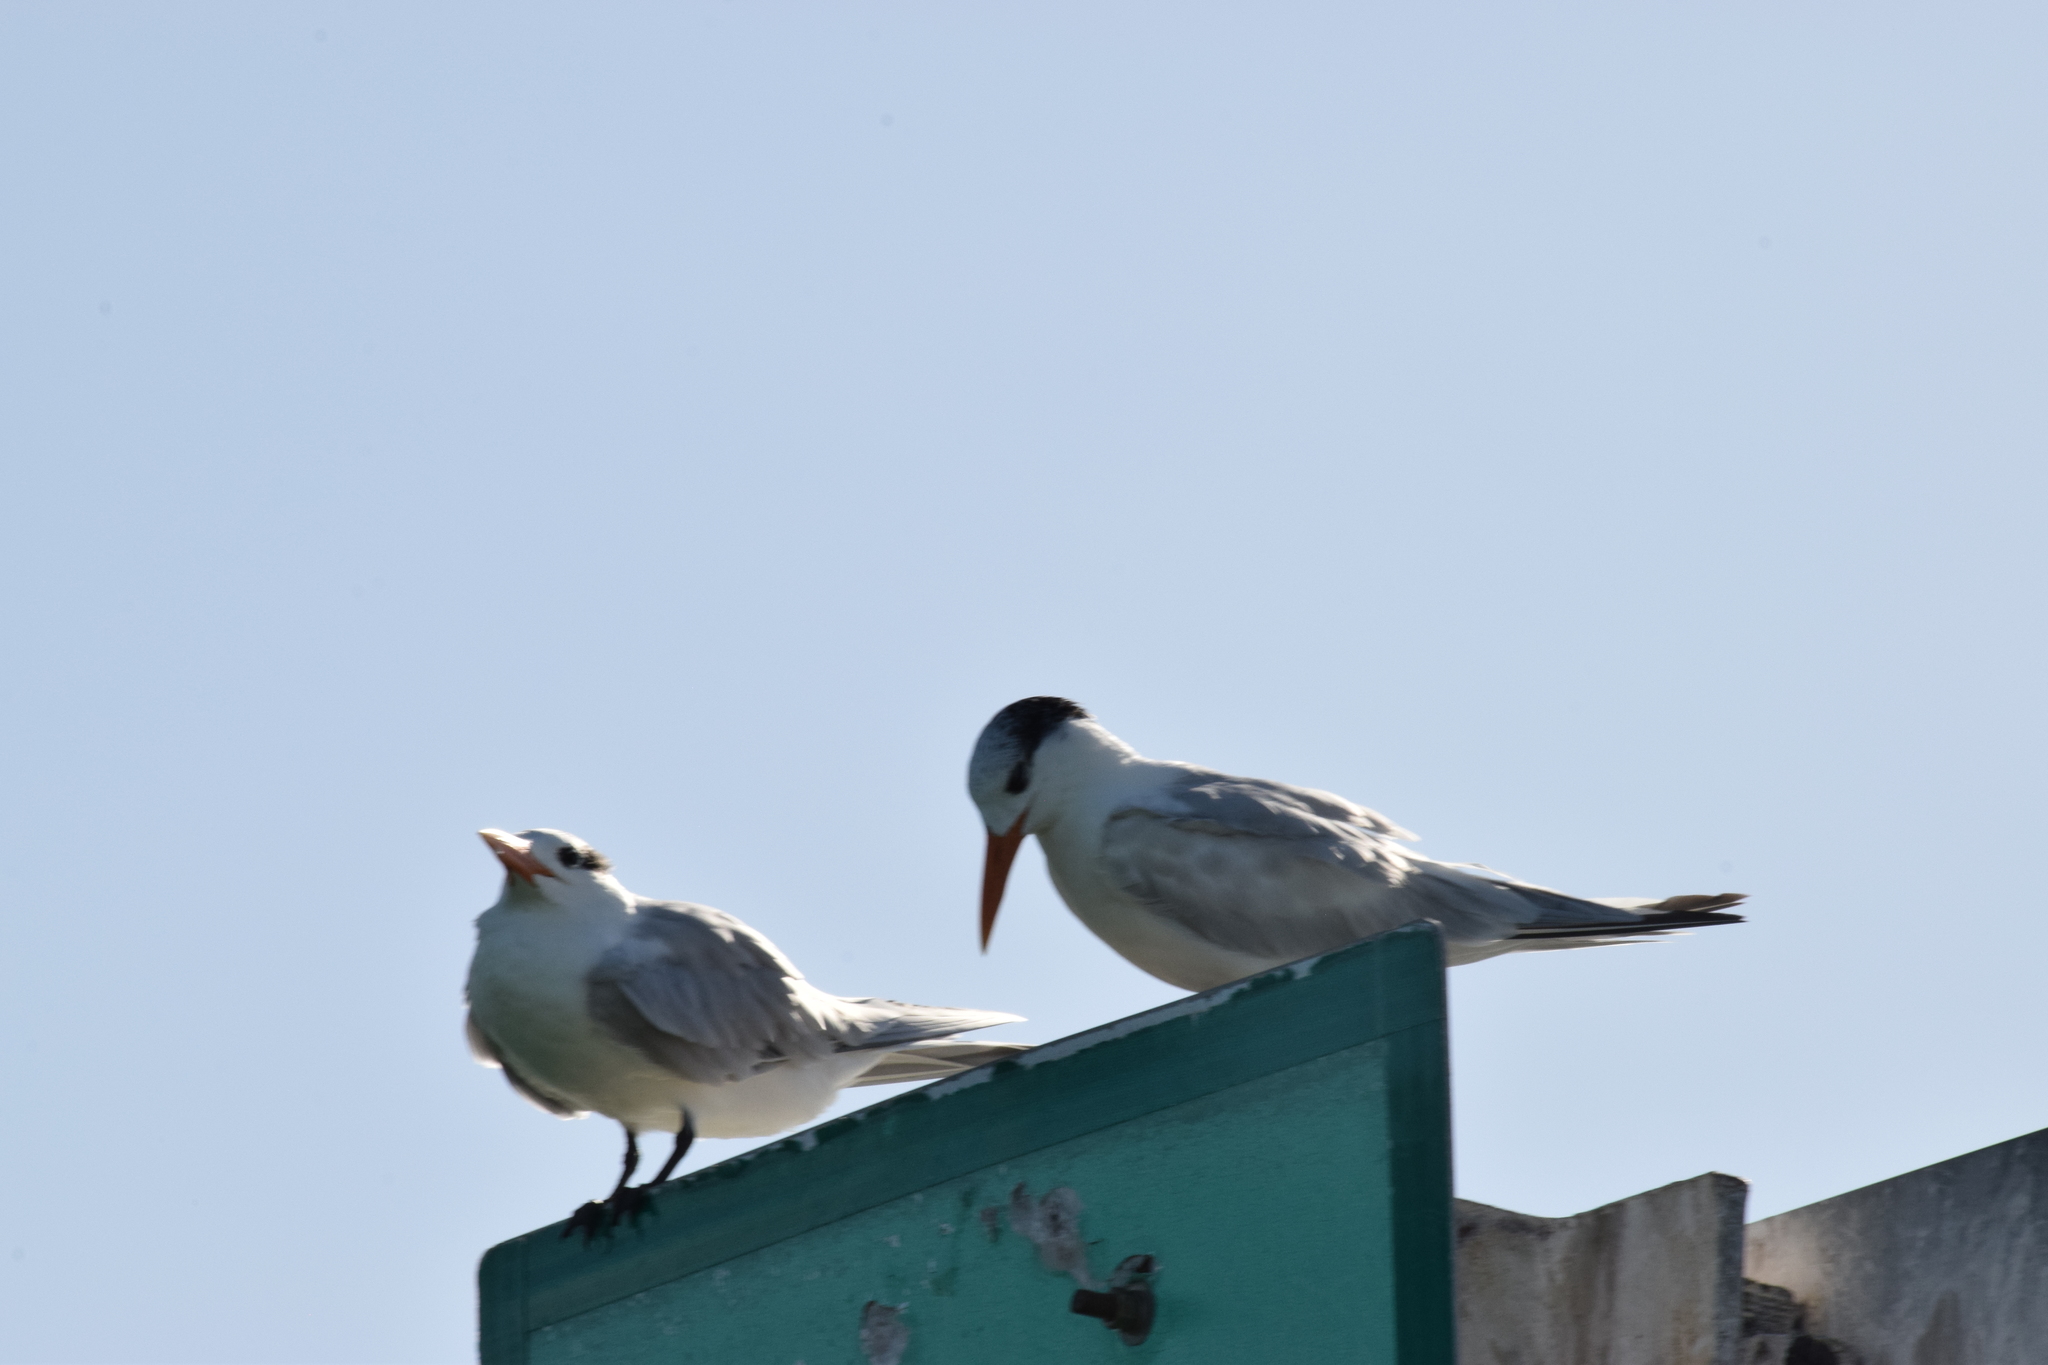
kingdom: Animalia
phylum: Chordata
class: Aves
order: Charadriiformes
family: Laridae
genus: Thalasseus
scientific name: Thalasseus maximus
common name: Royal tern
